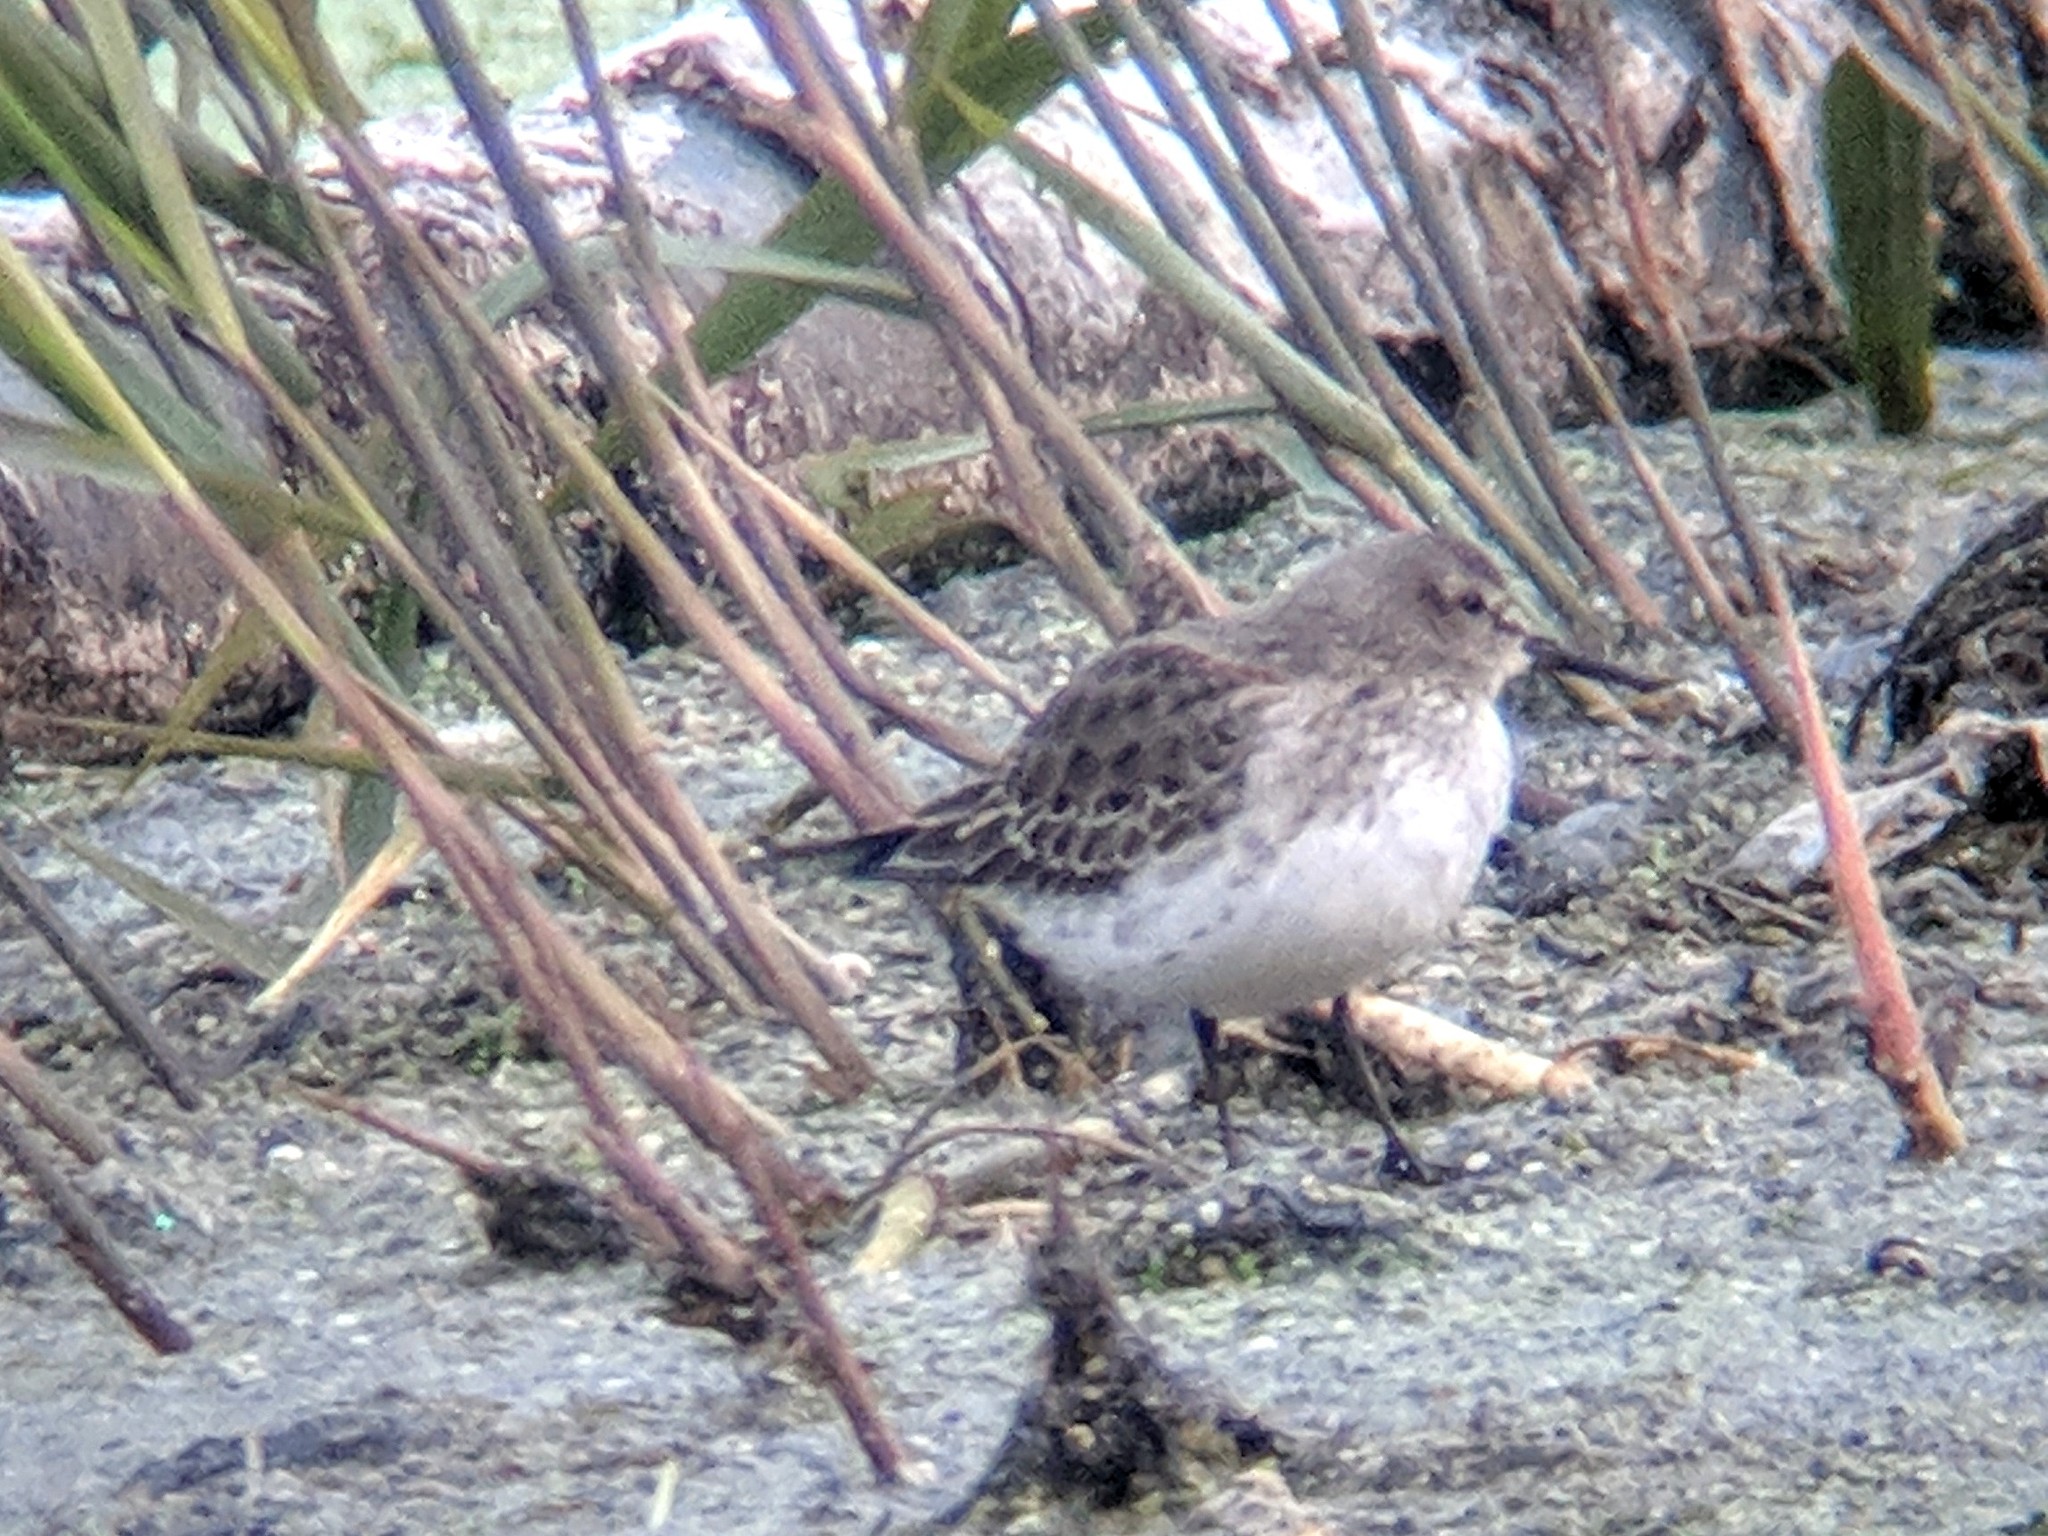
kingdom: Animalia
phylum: Chordata
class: Aves
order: Charadriiformes
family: Scolopacidae
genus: Calidris
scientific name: Calidris fuscicollis
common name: White-rumped sandpiper
